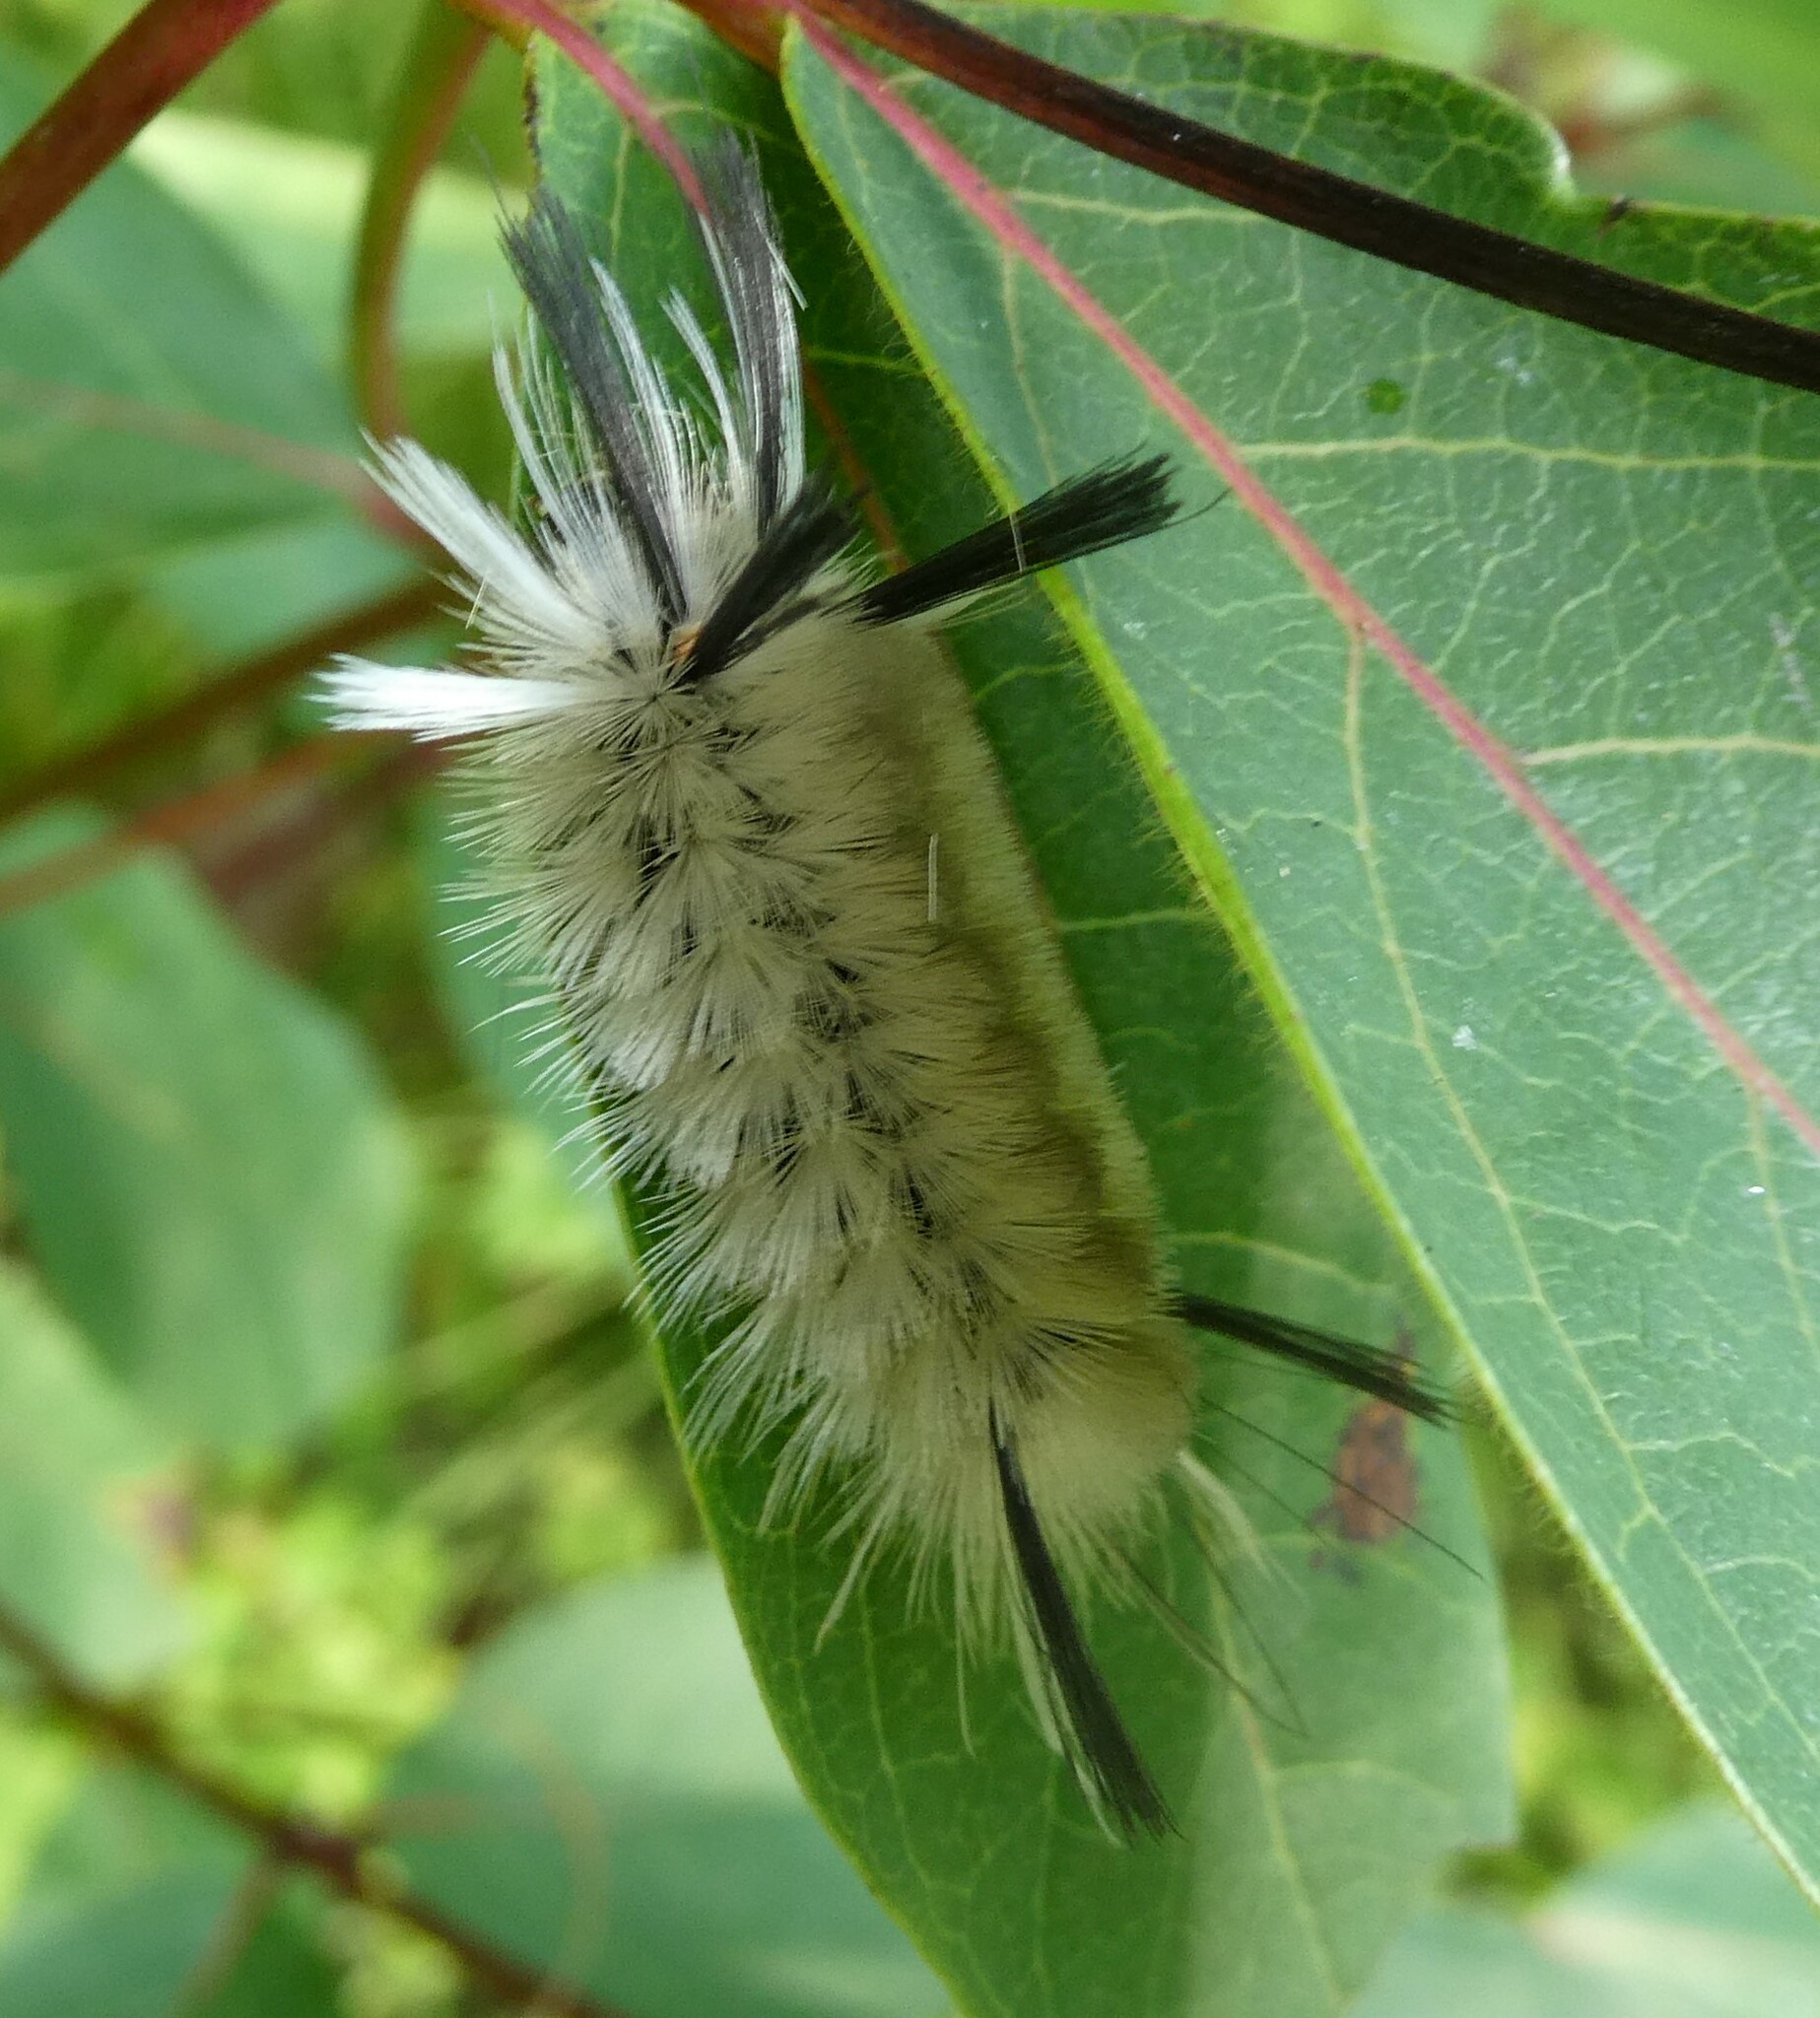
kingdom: Animalia
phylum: Arthropoda
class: Insecta
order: Lepidoptera
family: Erebidae
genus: Halysidota
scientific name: Halysidota tessellaris
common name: Banded tussock moth
